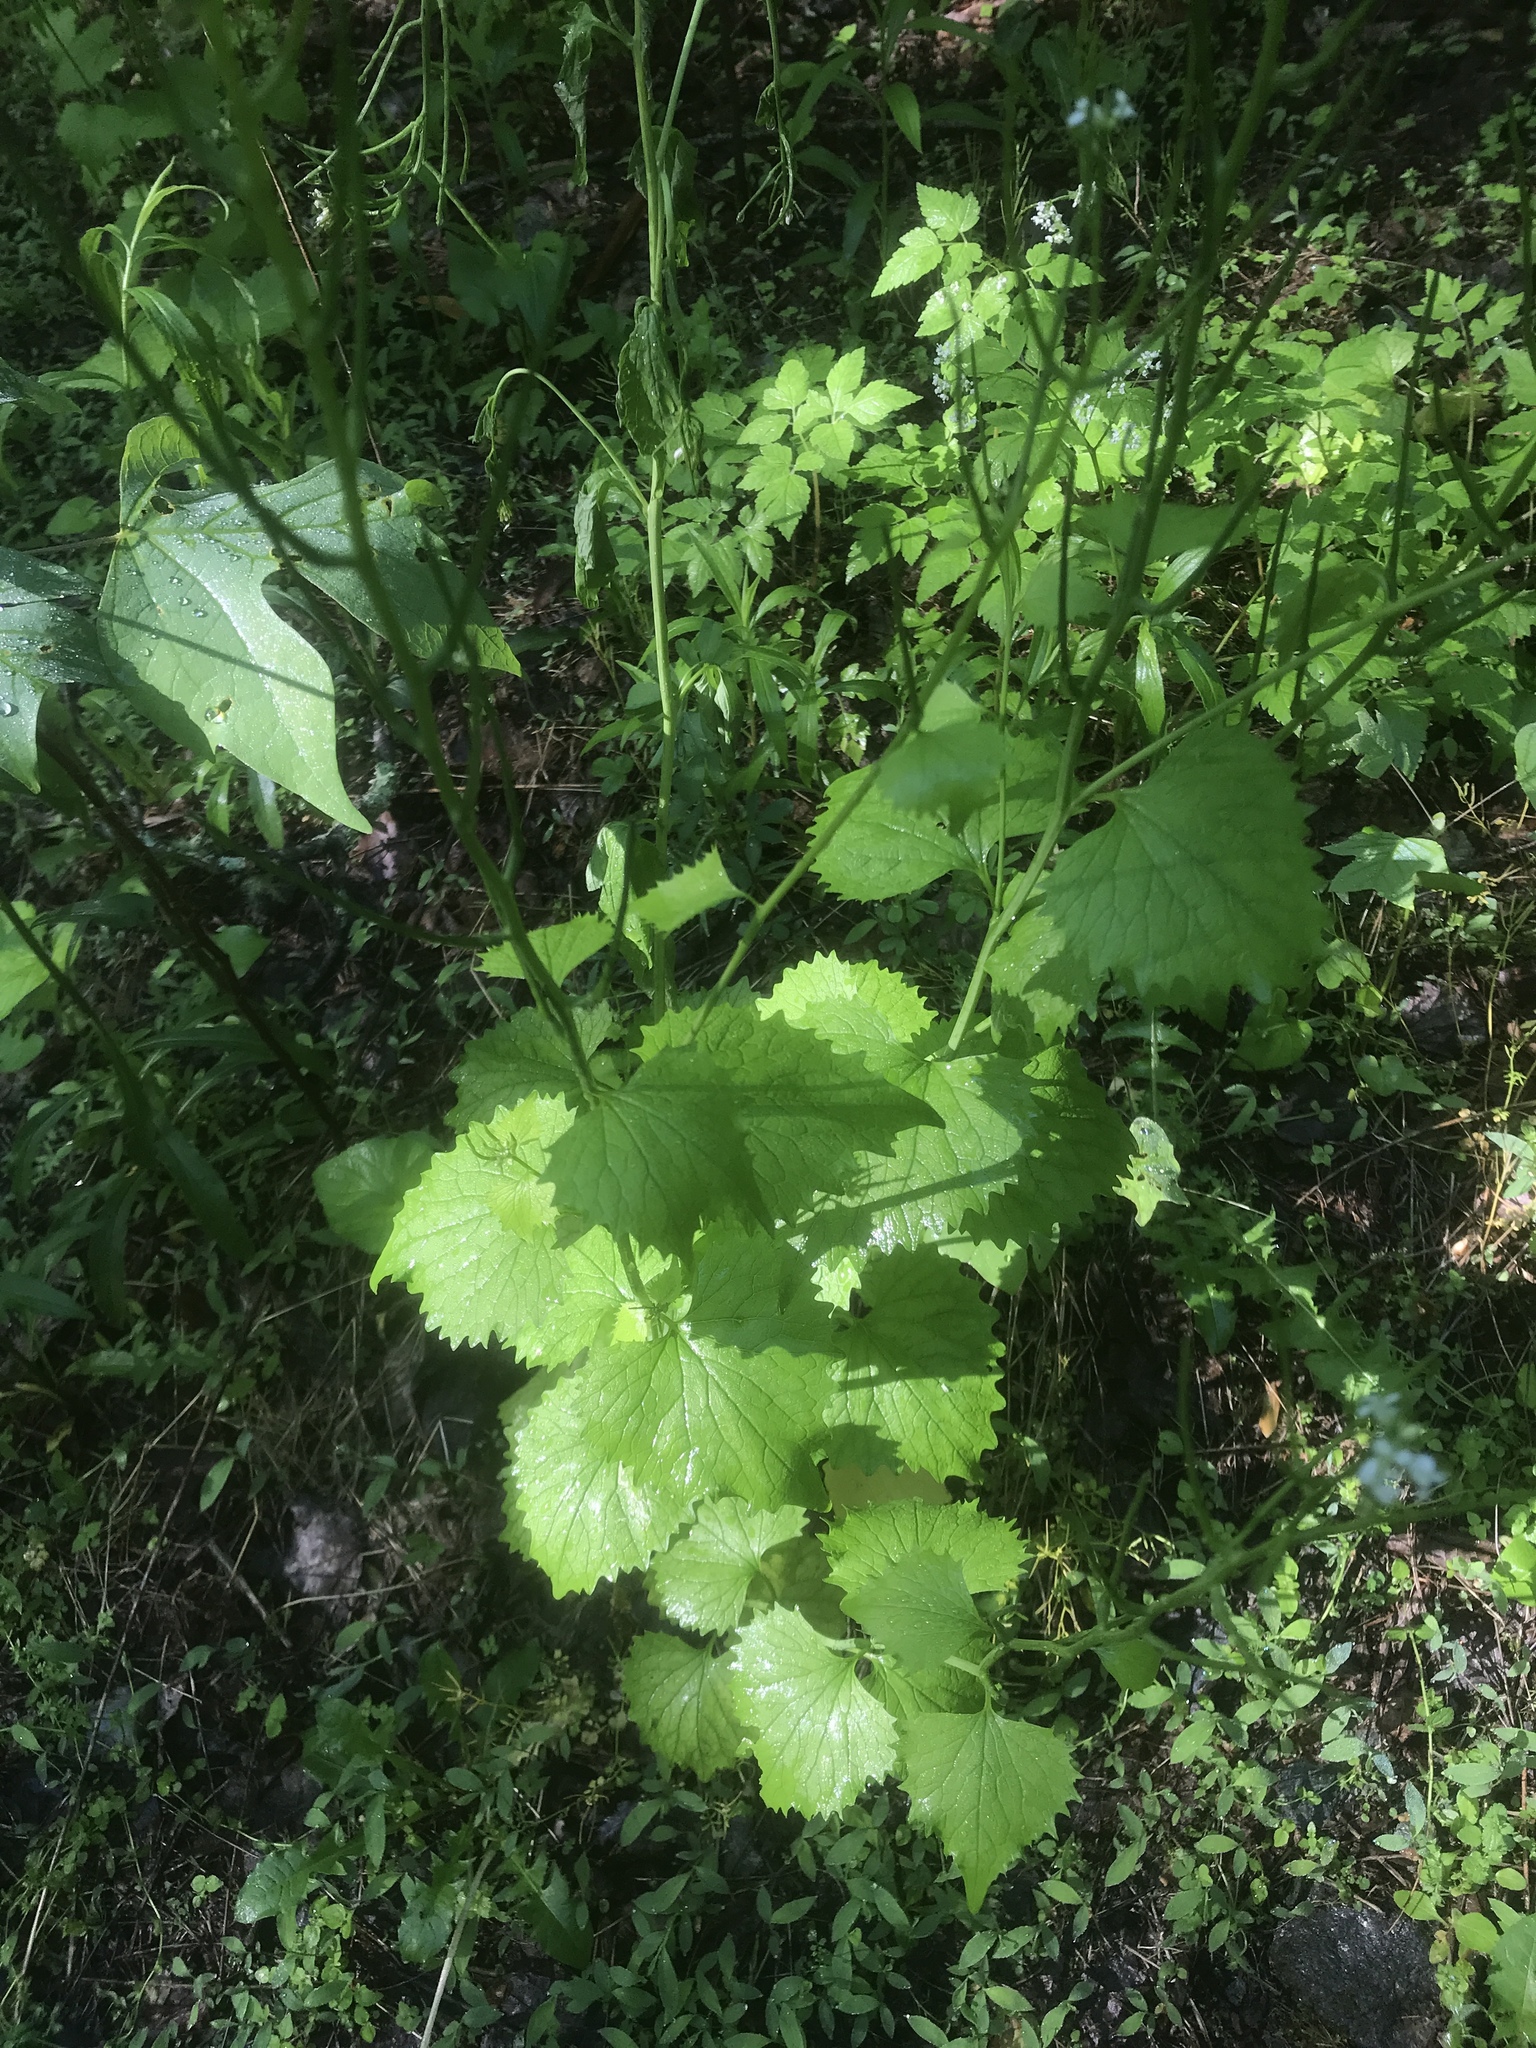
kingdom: Plantae
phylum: Tracheophyta
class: Magnoliopsida
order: Brassicales
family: Brassicaceae
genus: Alliaria
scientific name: Alliaria petiolata
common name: Garlic mustard
